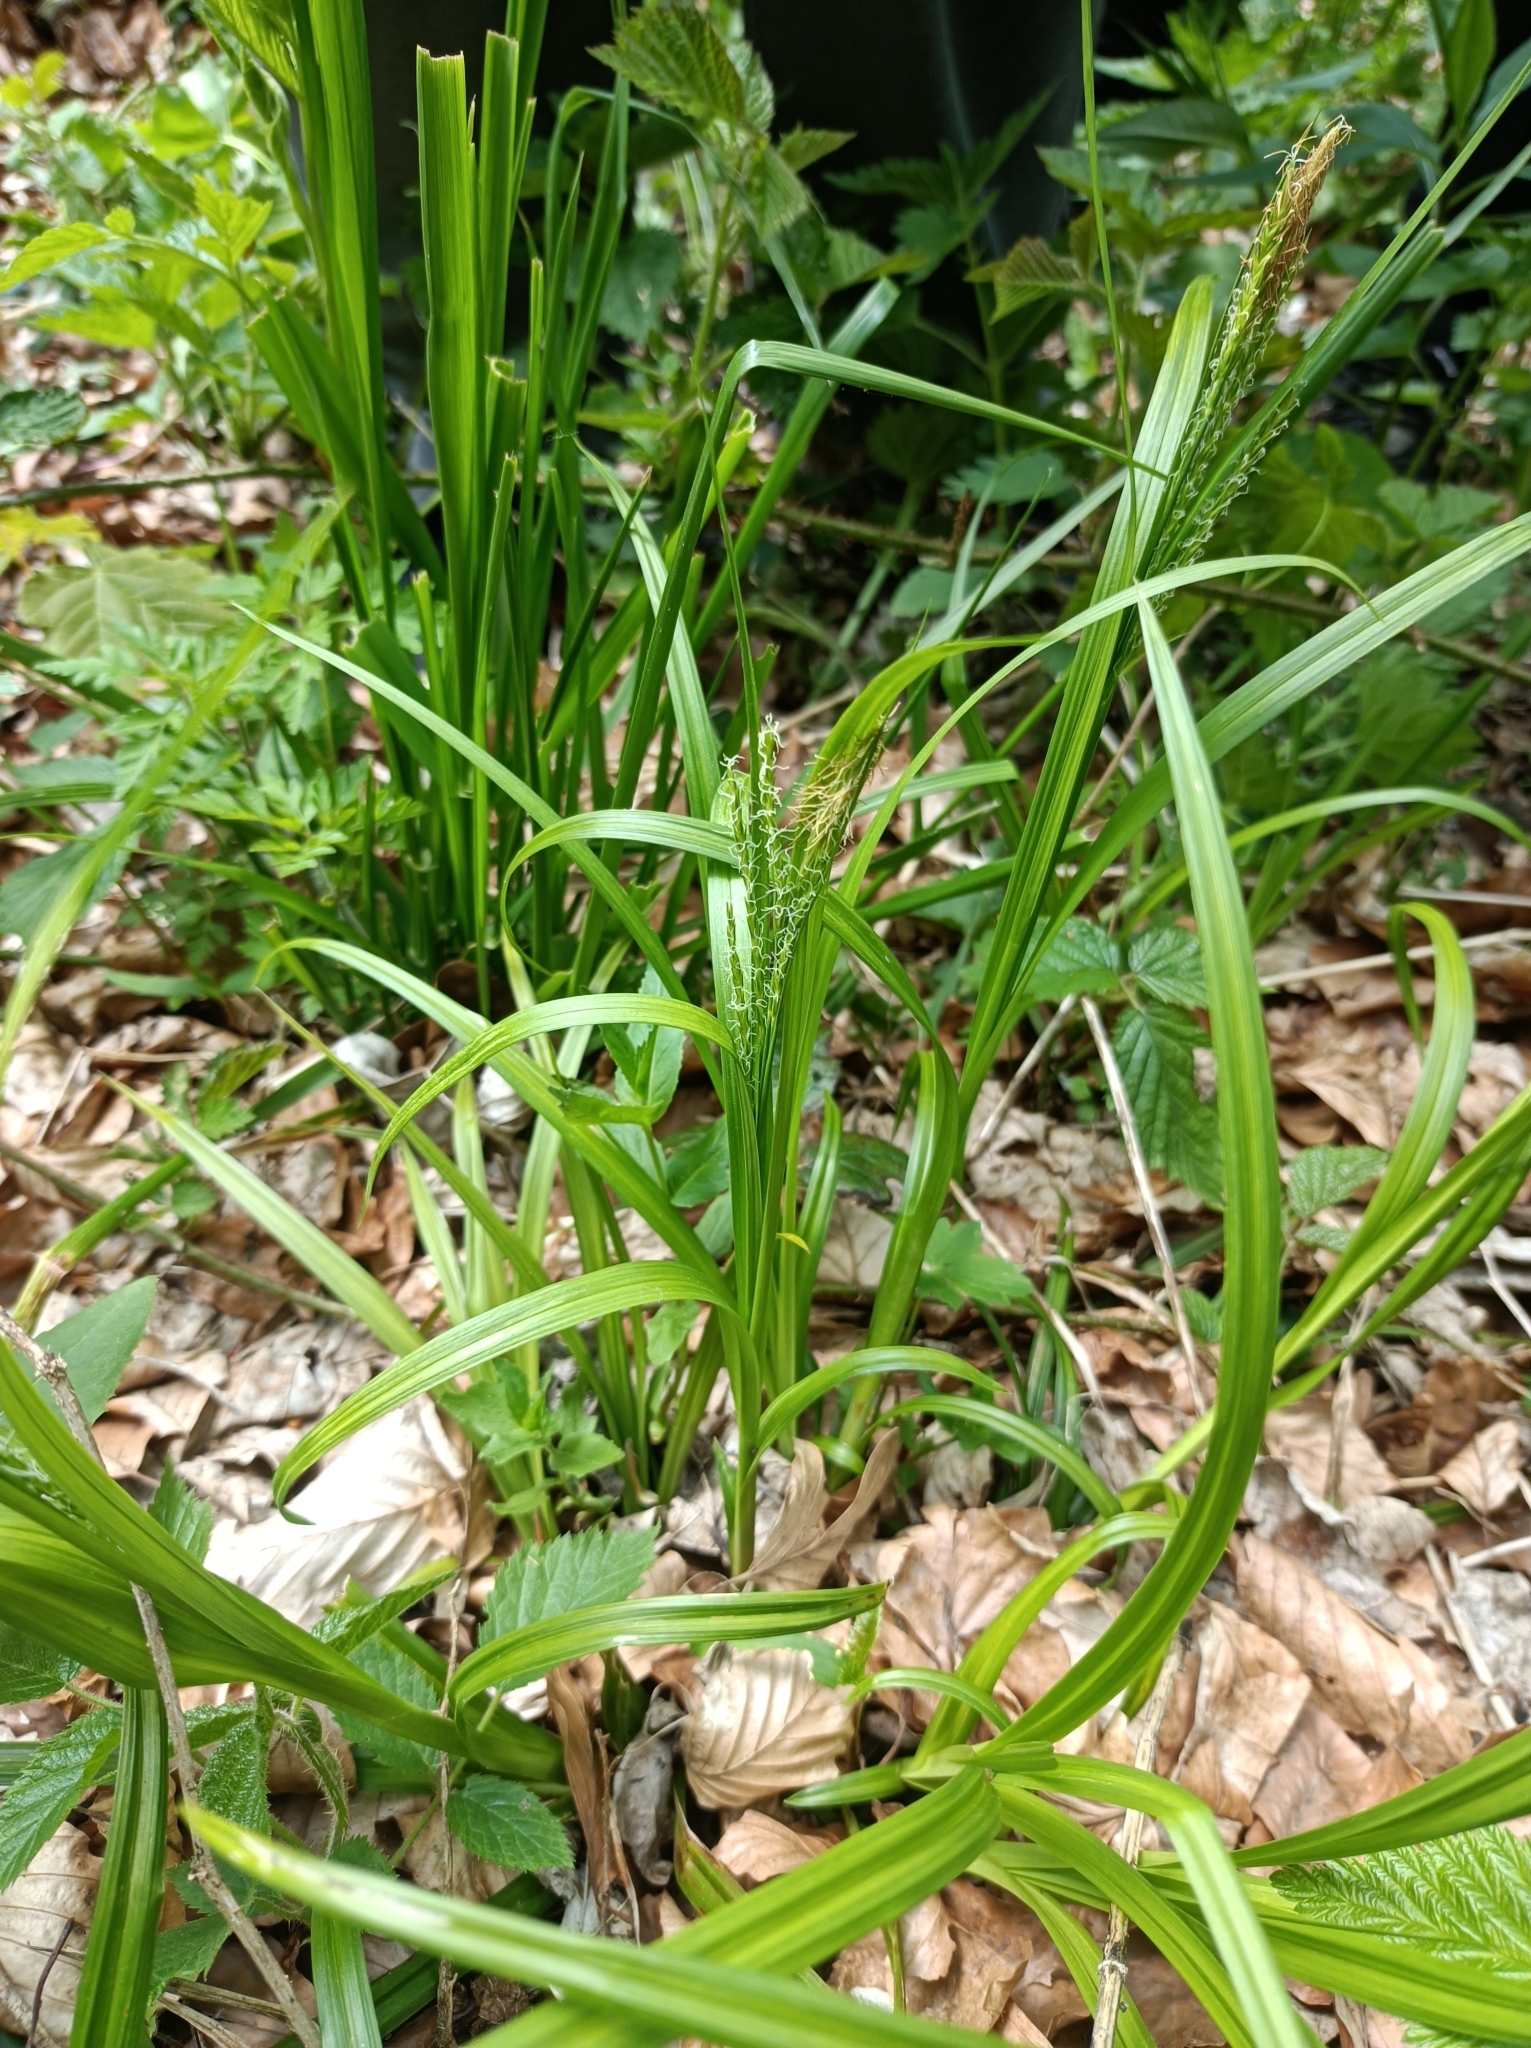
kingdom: Plantae
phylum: Tracheophyta
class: Liliopsida
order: Poales
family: Cyperaceae
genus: Carex
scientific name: Carex sylvatica
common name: Wood-sedge
